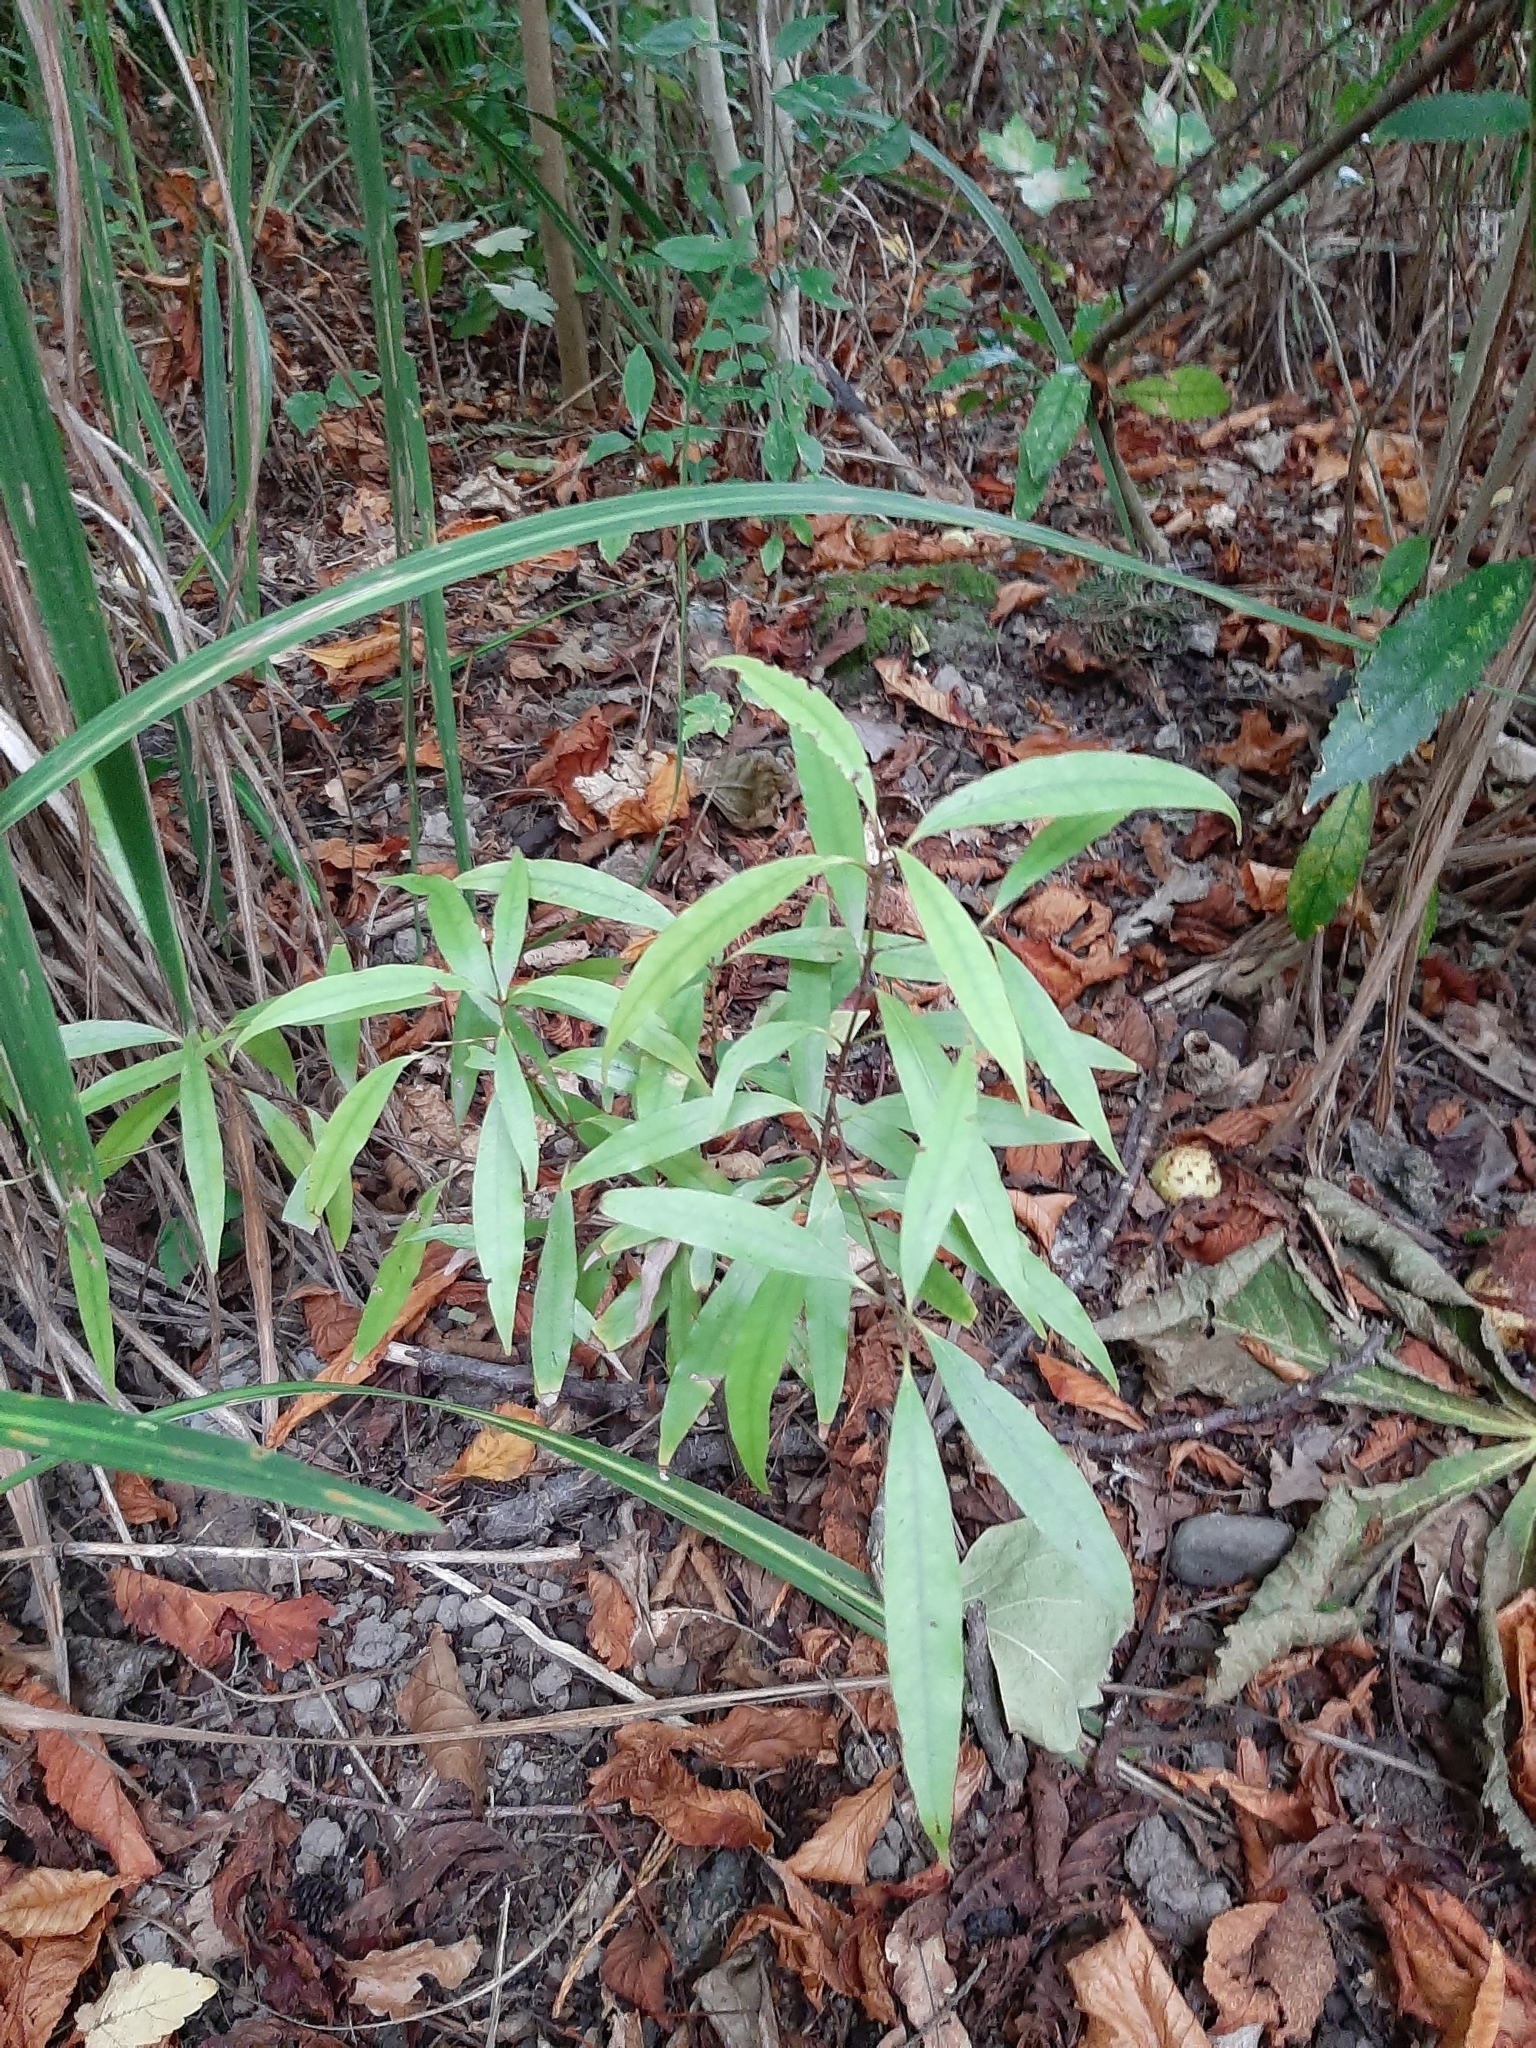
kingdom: Plantae
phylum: Tracheophyta
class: Magnoliopsida
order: Laurales
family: Lauraceae
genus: Beilschmiedia
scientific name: Beilschmiedia tawa
